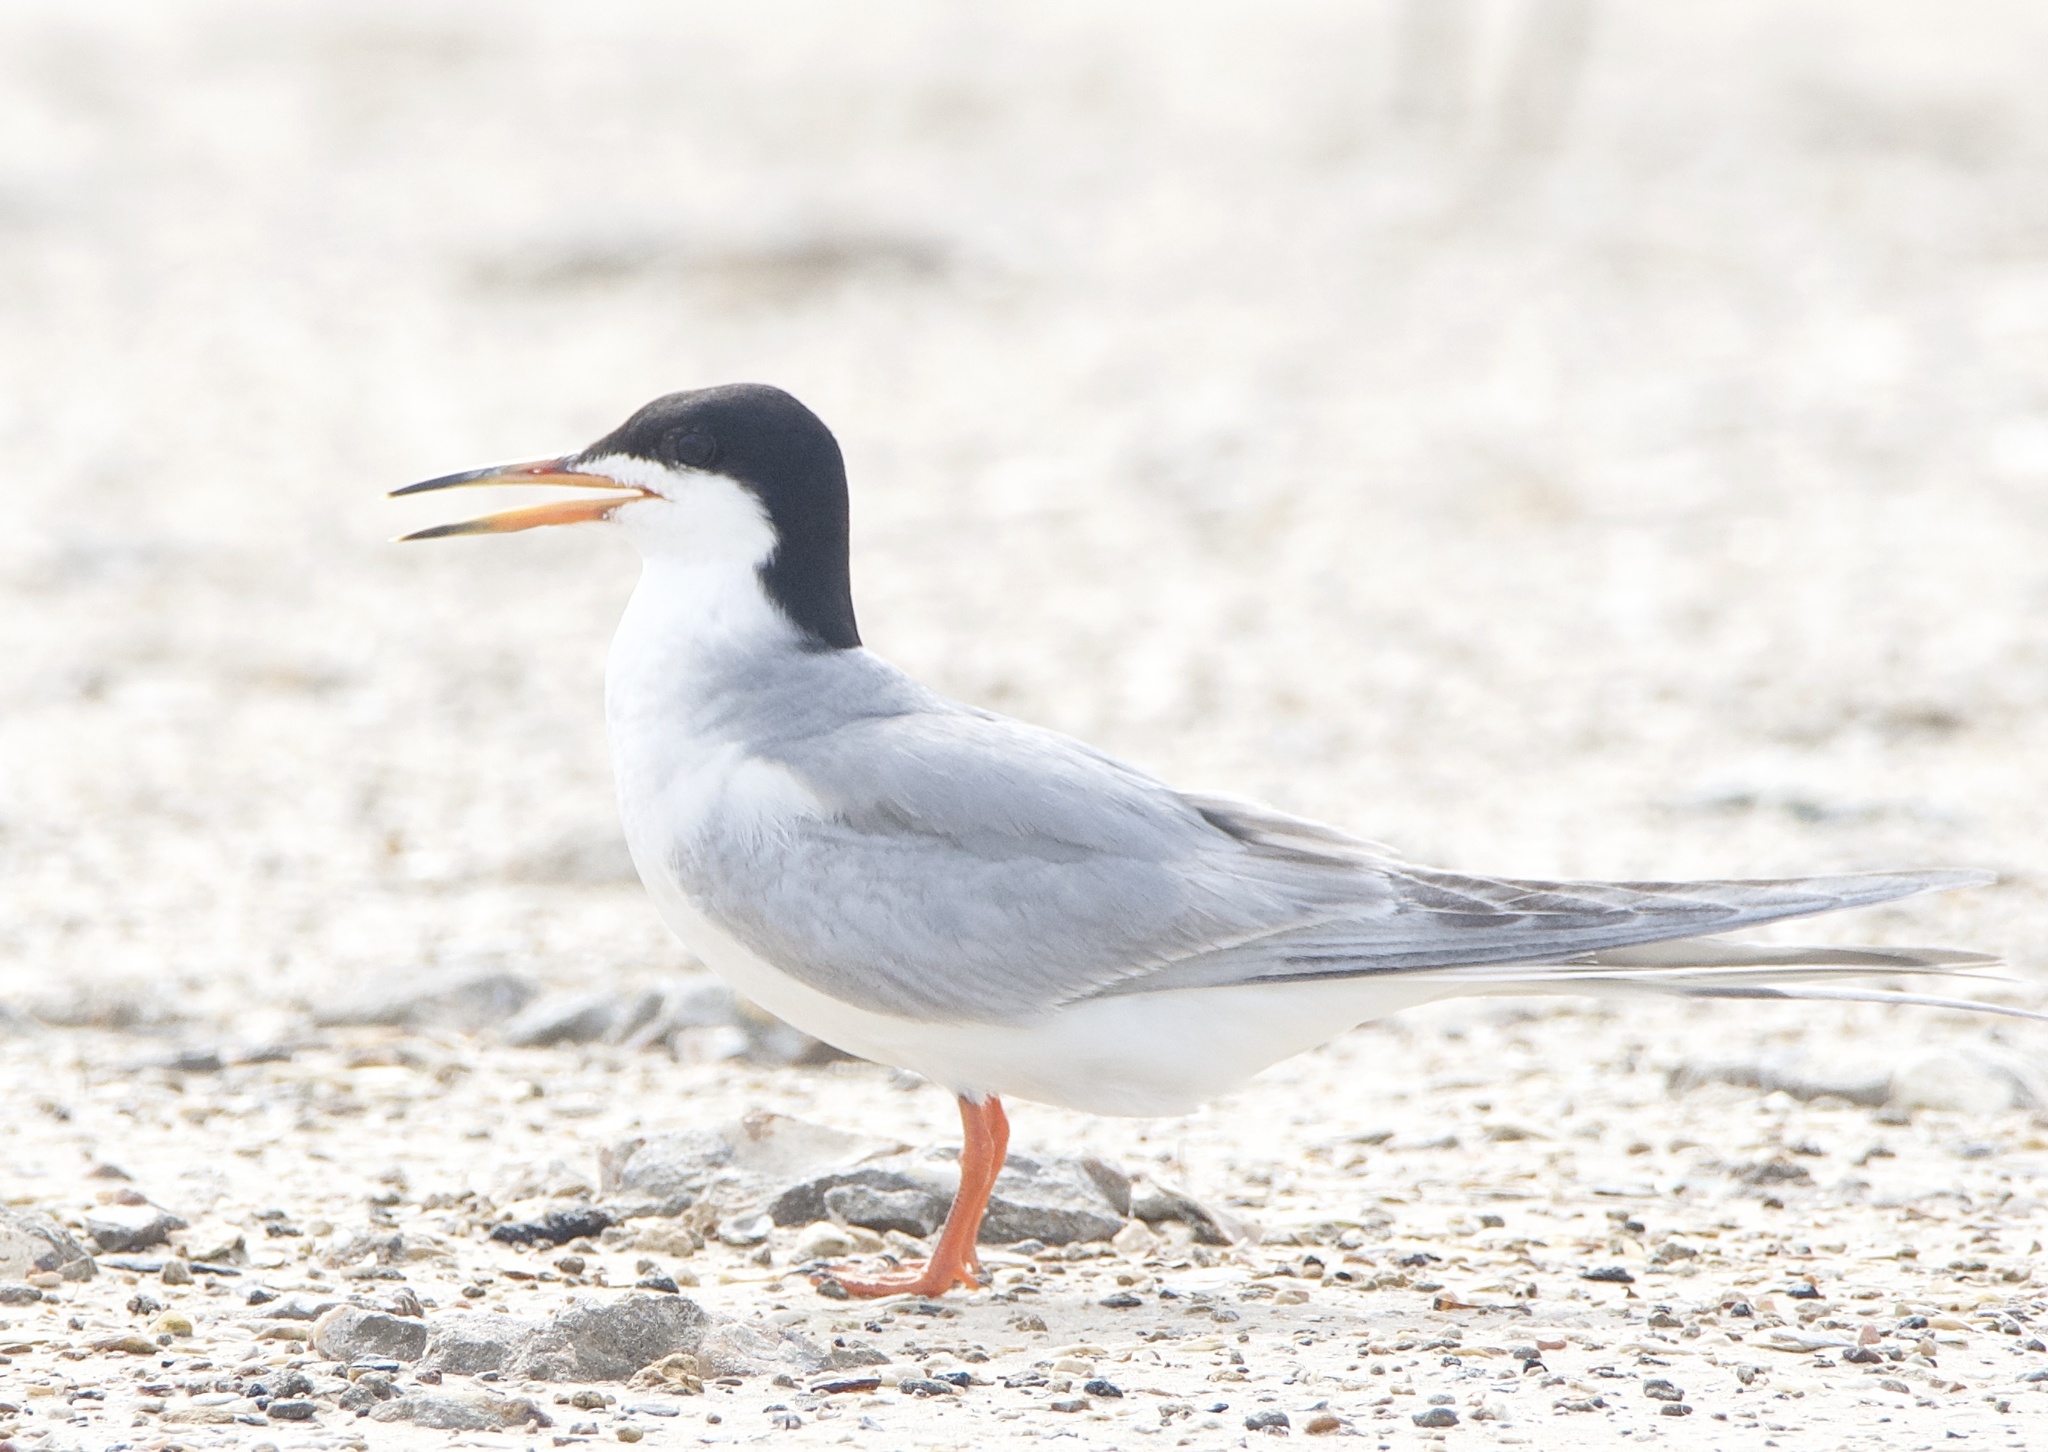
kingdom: Animalia
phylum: Chordata
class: Aves
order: Charadriiformes
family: Laridae
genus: Sterna
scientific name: Sterna forsteri
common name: Forster's tern
